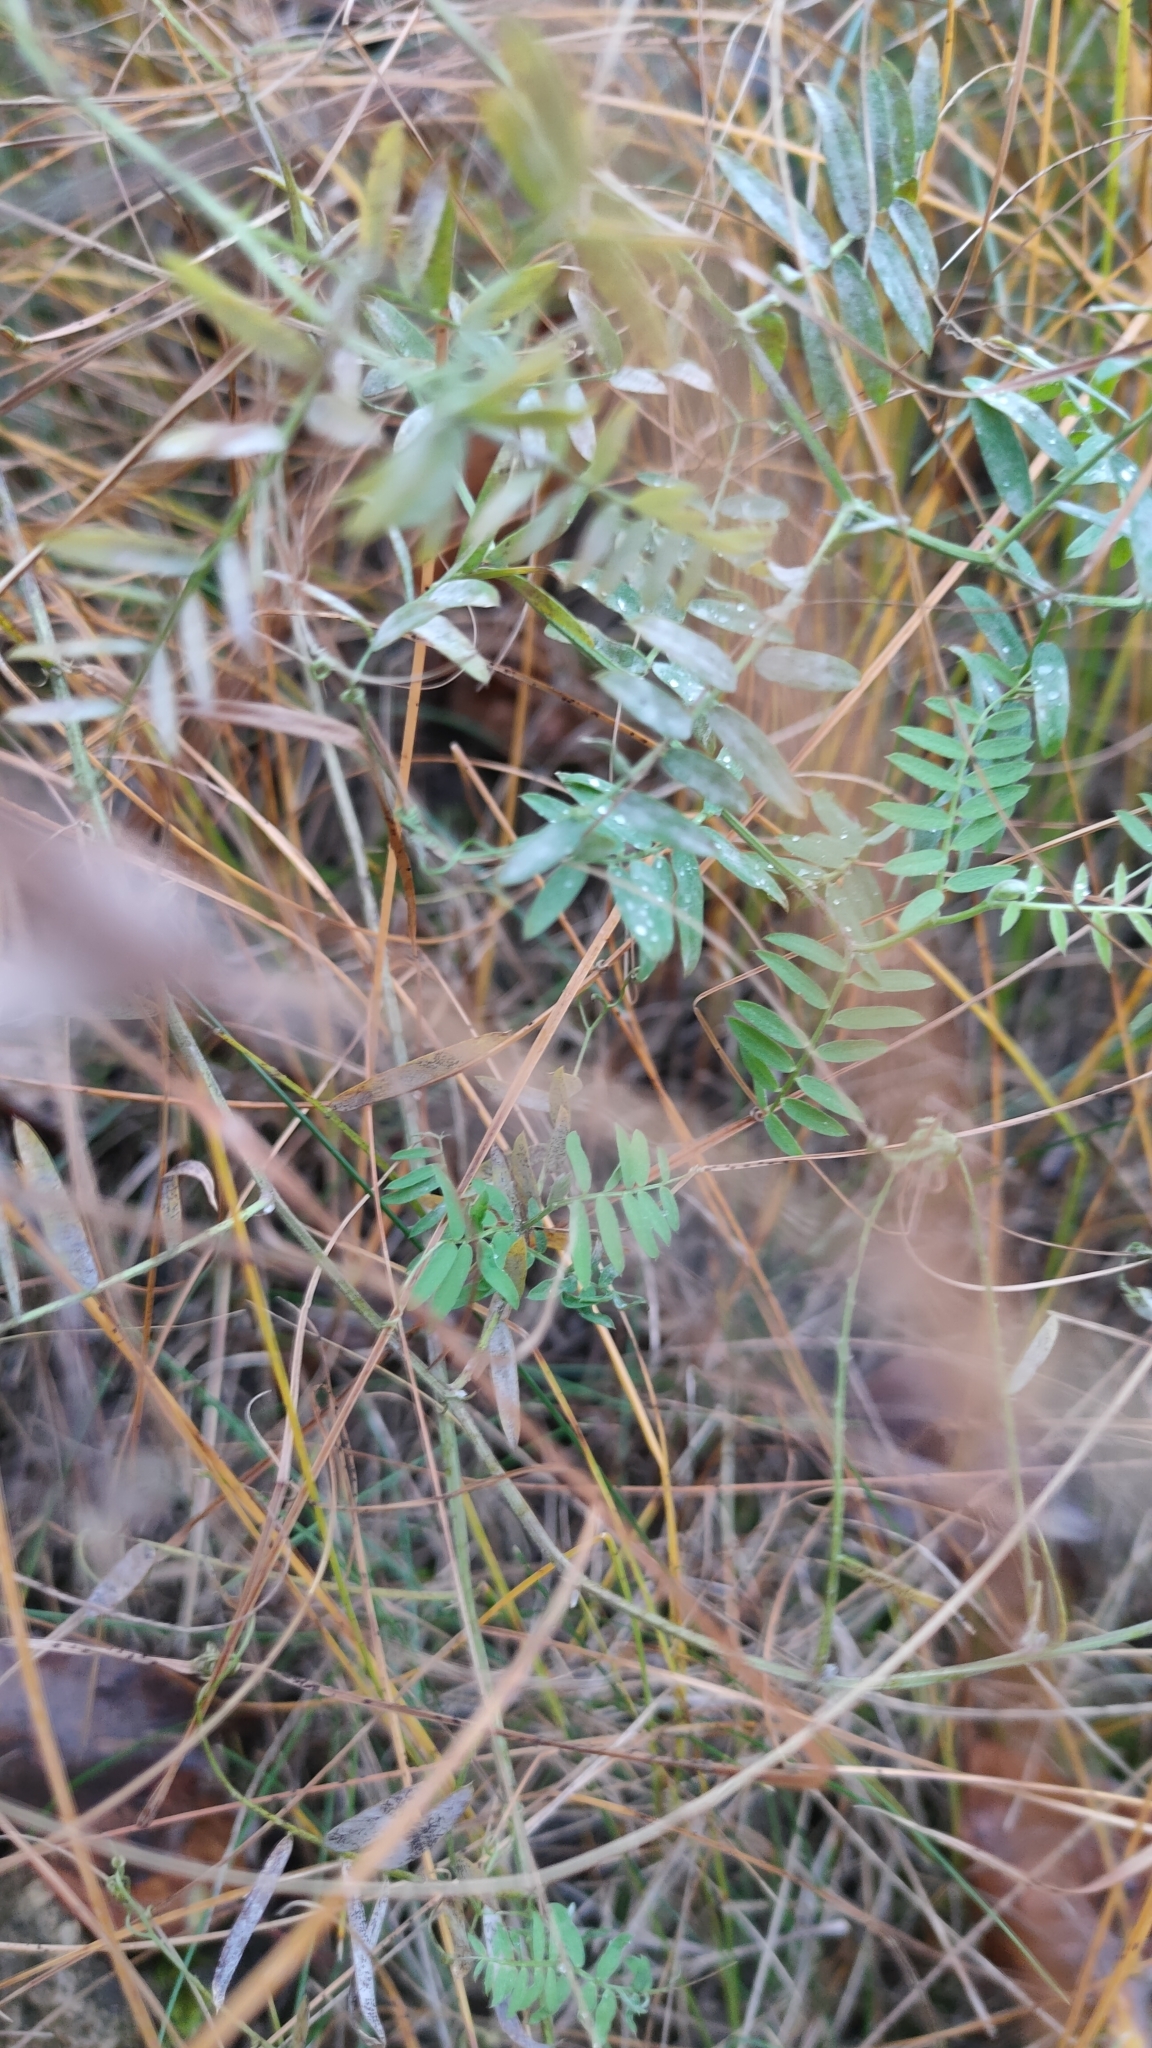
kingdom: Plantae
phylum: Tracheophyta
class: Magnoliopsida
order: Fabales
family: Fabaceae
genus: Vicia
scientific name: Vicia cracca
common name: Bird vetch
